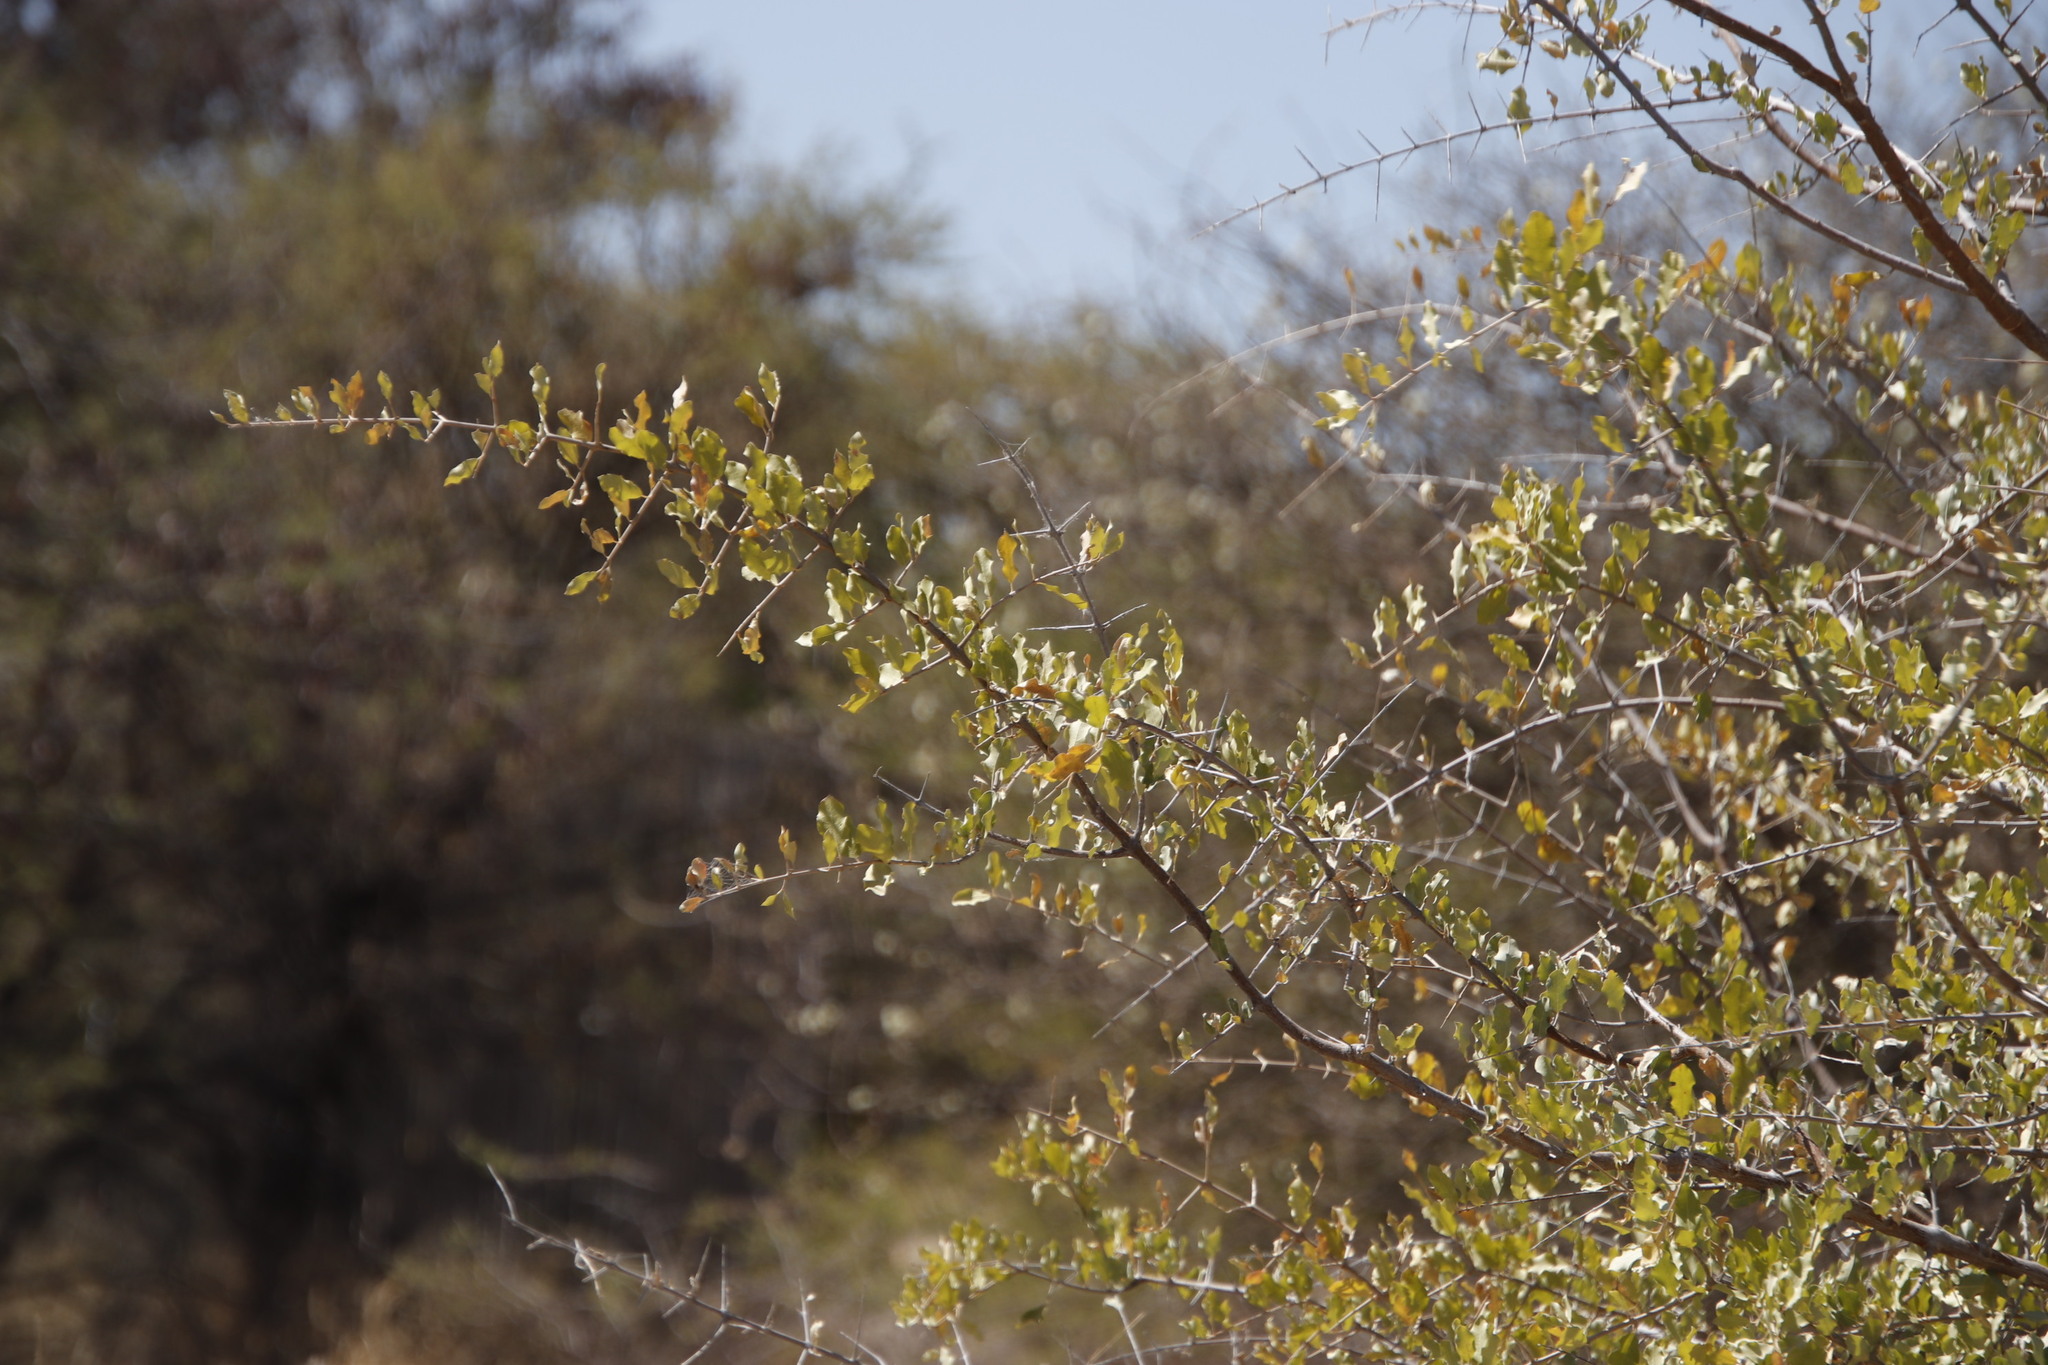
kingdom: Plantae
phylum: Tracheophyta
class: Magnoliopsida
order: Myrtales
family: Combretaceae
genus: Combretum
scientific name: Combretum imberbe
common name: Leadwood
